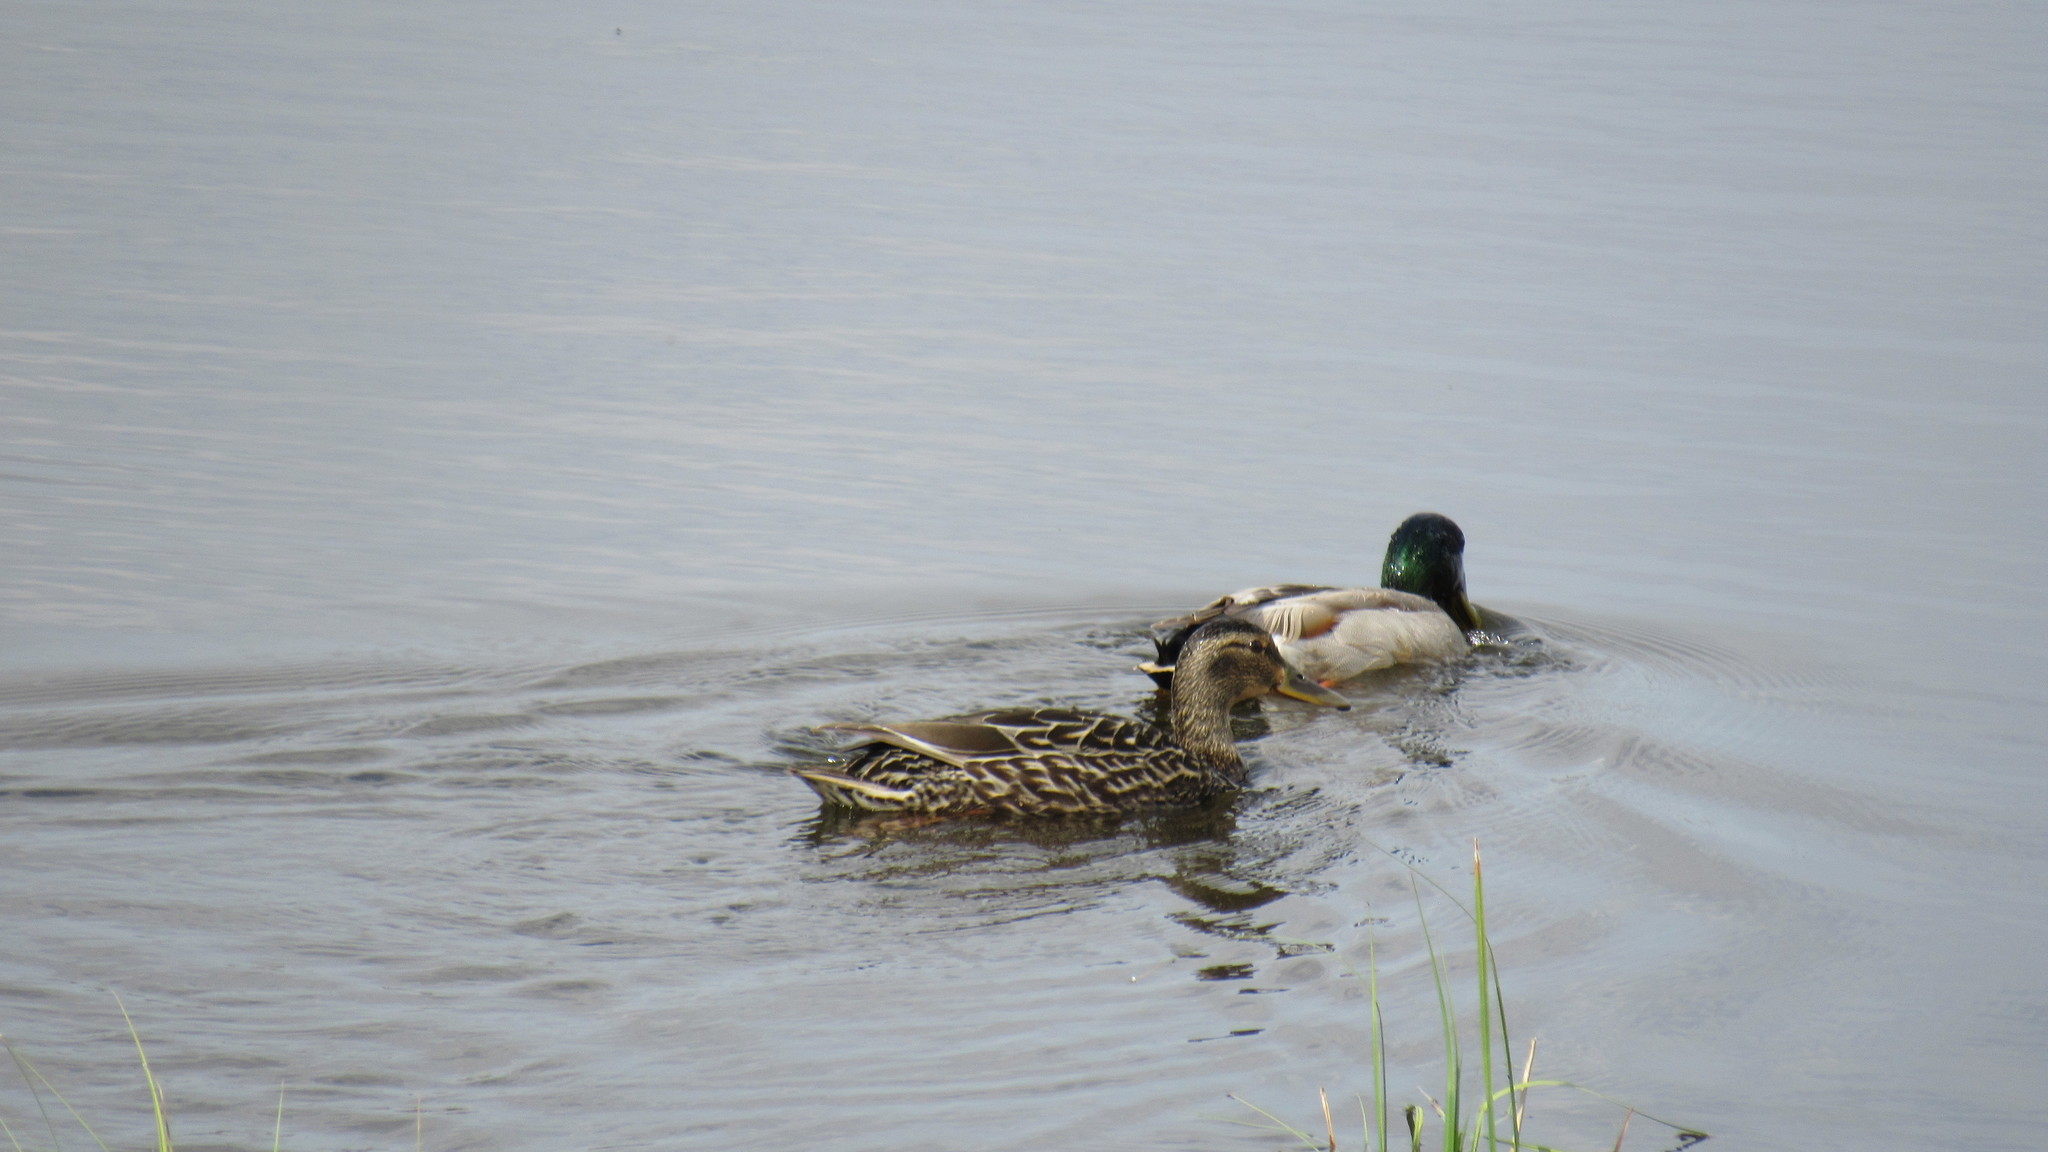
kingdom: Animalia
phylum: Chordata
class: Aves
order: Anseriformes
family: Anatidae
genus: Anas
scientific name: Anas platyrhynchos
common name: Mallard
